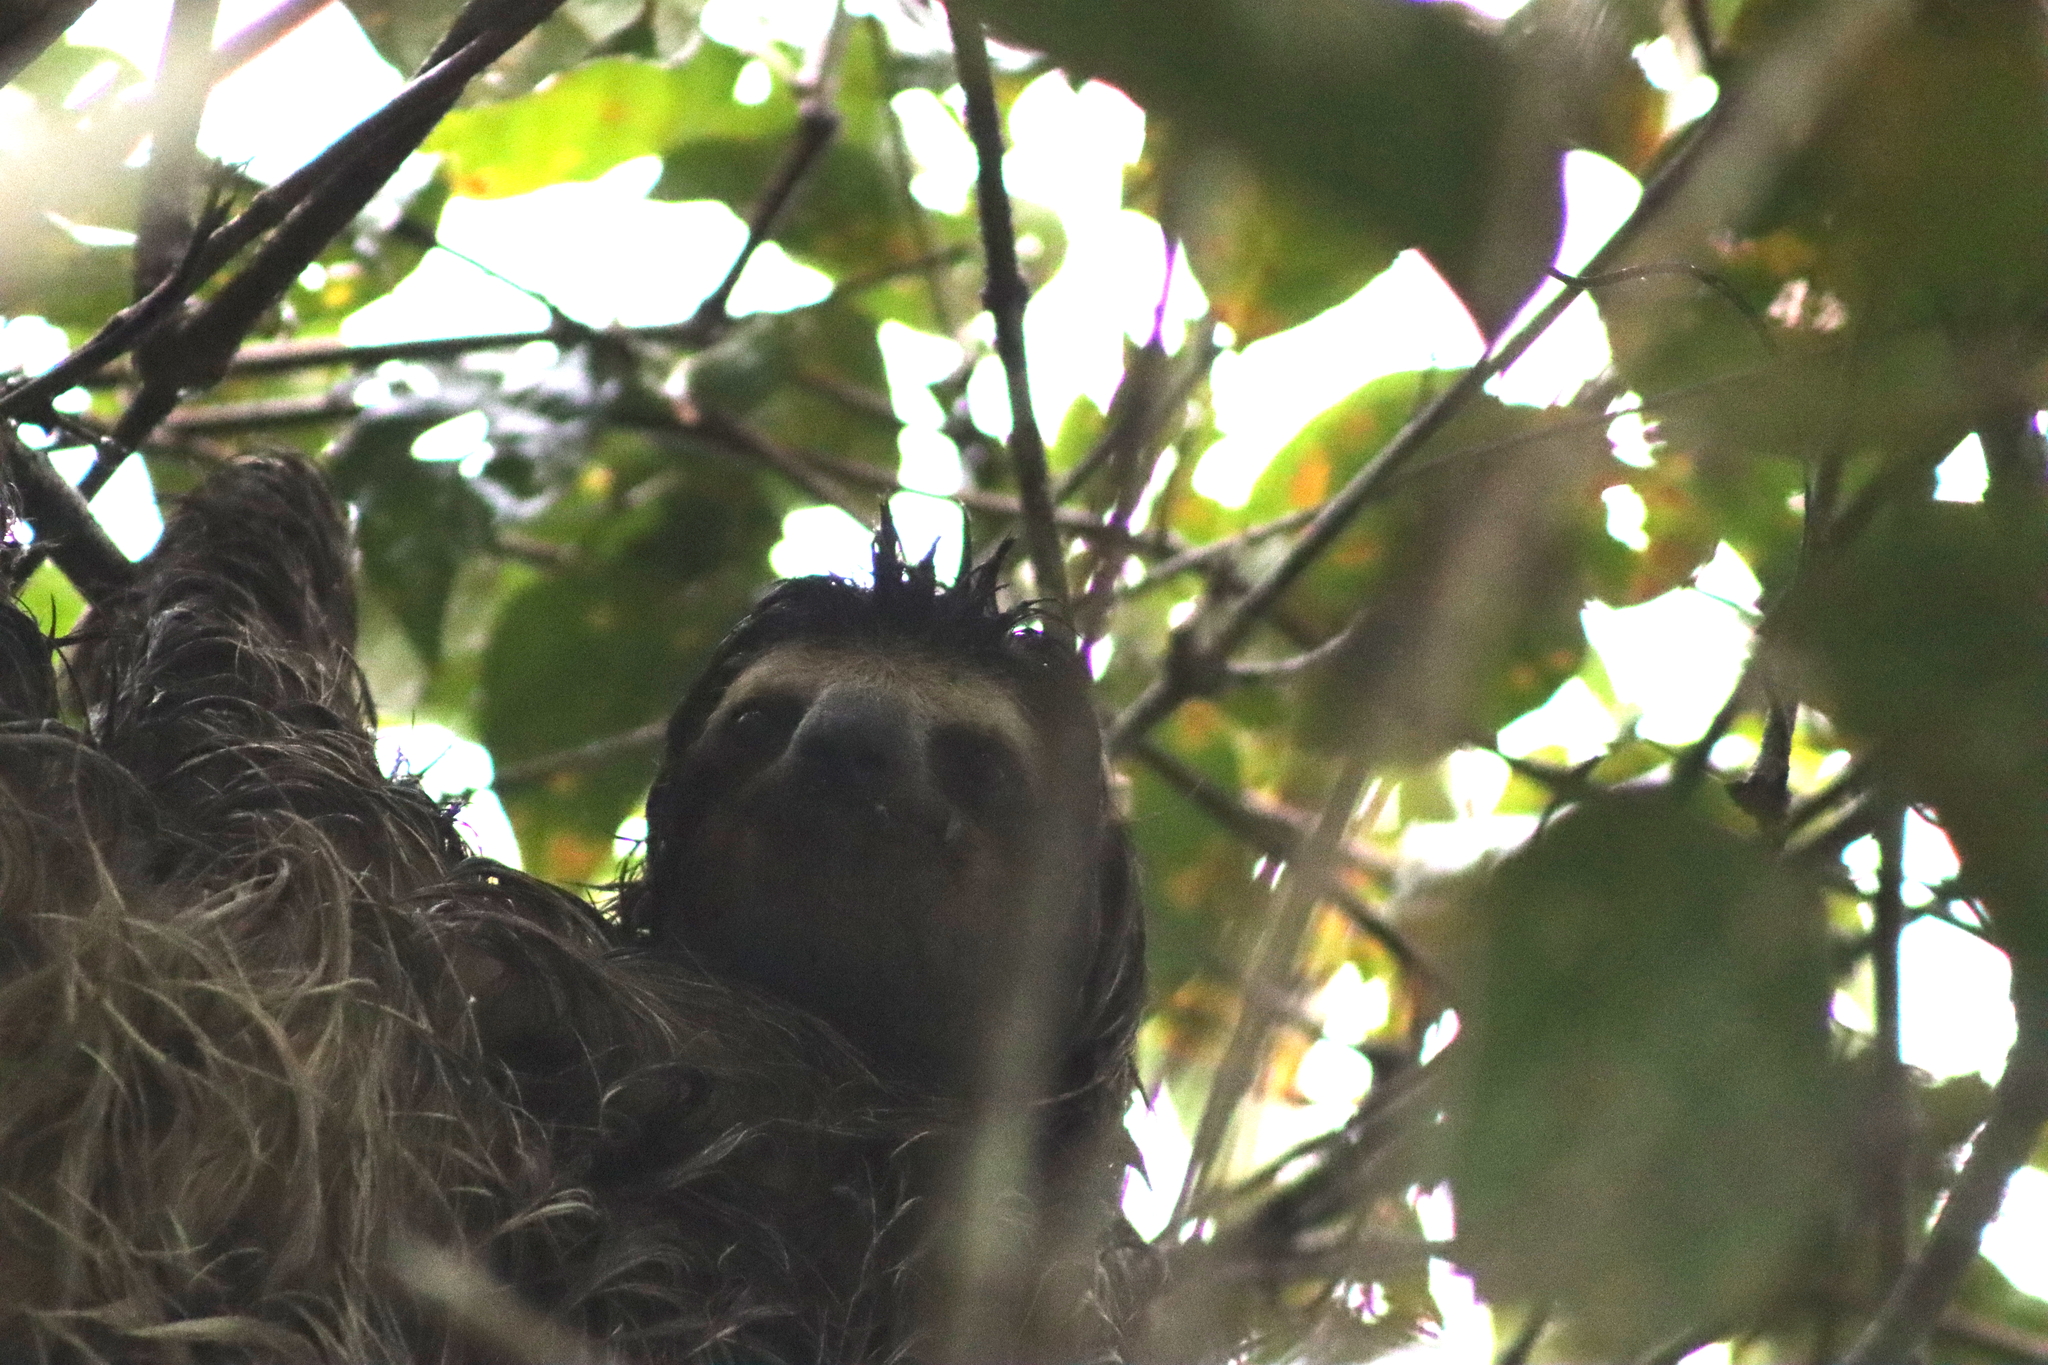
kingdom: Animalia
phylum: Chordata
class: Mammalia
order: Pilosa
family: Bradypodidae
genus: Bradypus
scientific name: Bradypus variegatus
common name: Brown-throated three-toed sloth
